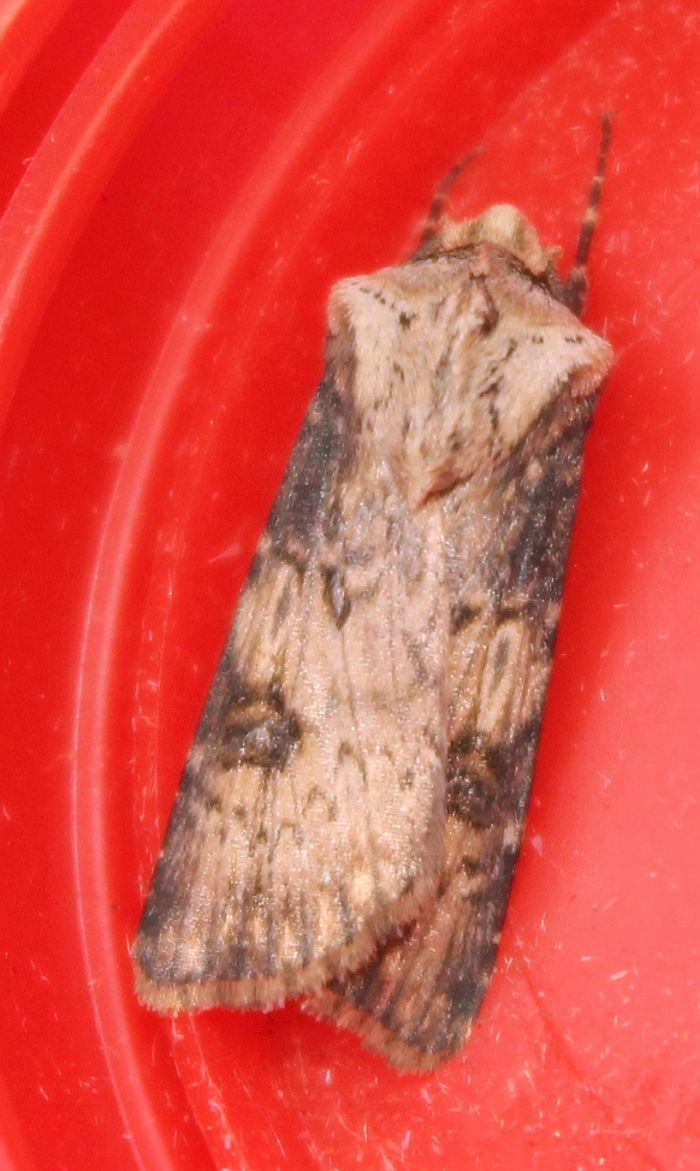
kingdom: Animalia
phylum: Arthropoda
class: Insecta
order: Lepidoptera
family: Noctuidae
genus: Agrotis
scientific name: Agrotis puta
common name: Shuttle-shaped dart
